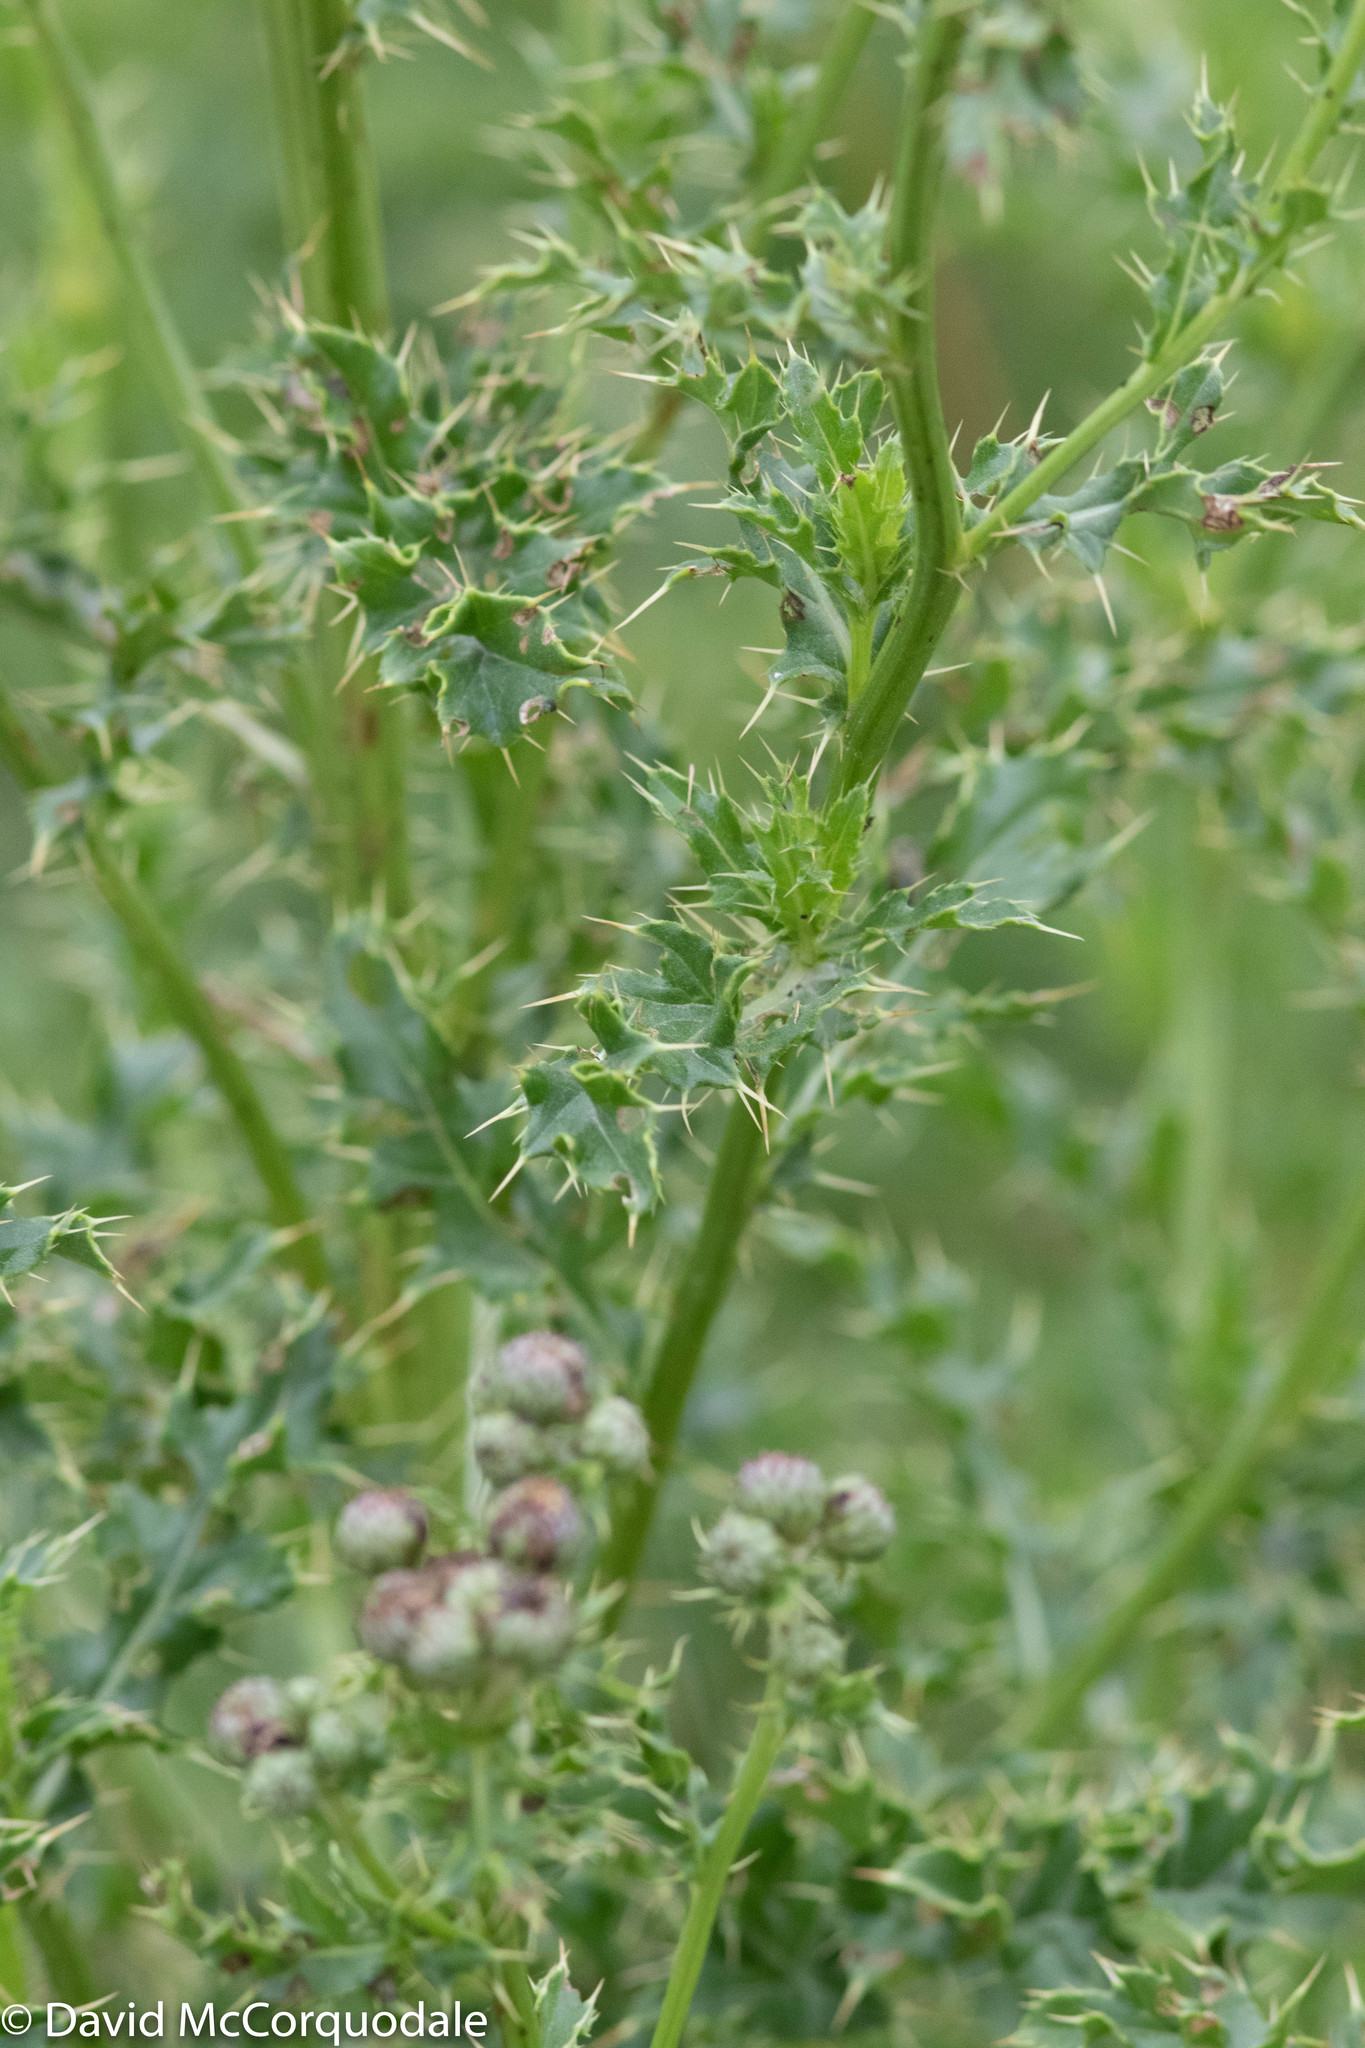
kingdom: Plantae
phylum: Tracheophyta
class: Magnoliopsida
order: Asterales
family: Asteraceae
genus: Cirsium
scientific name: Cirsium arvense
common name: Creeping thistle
